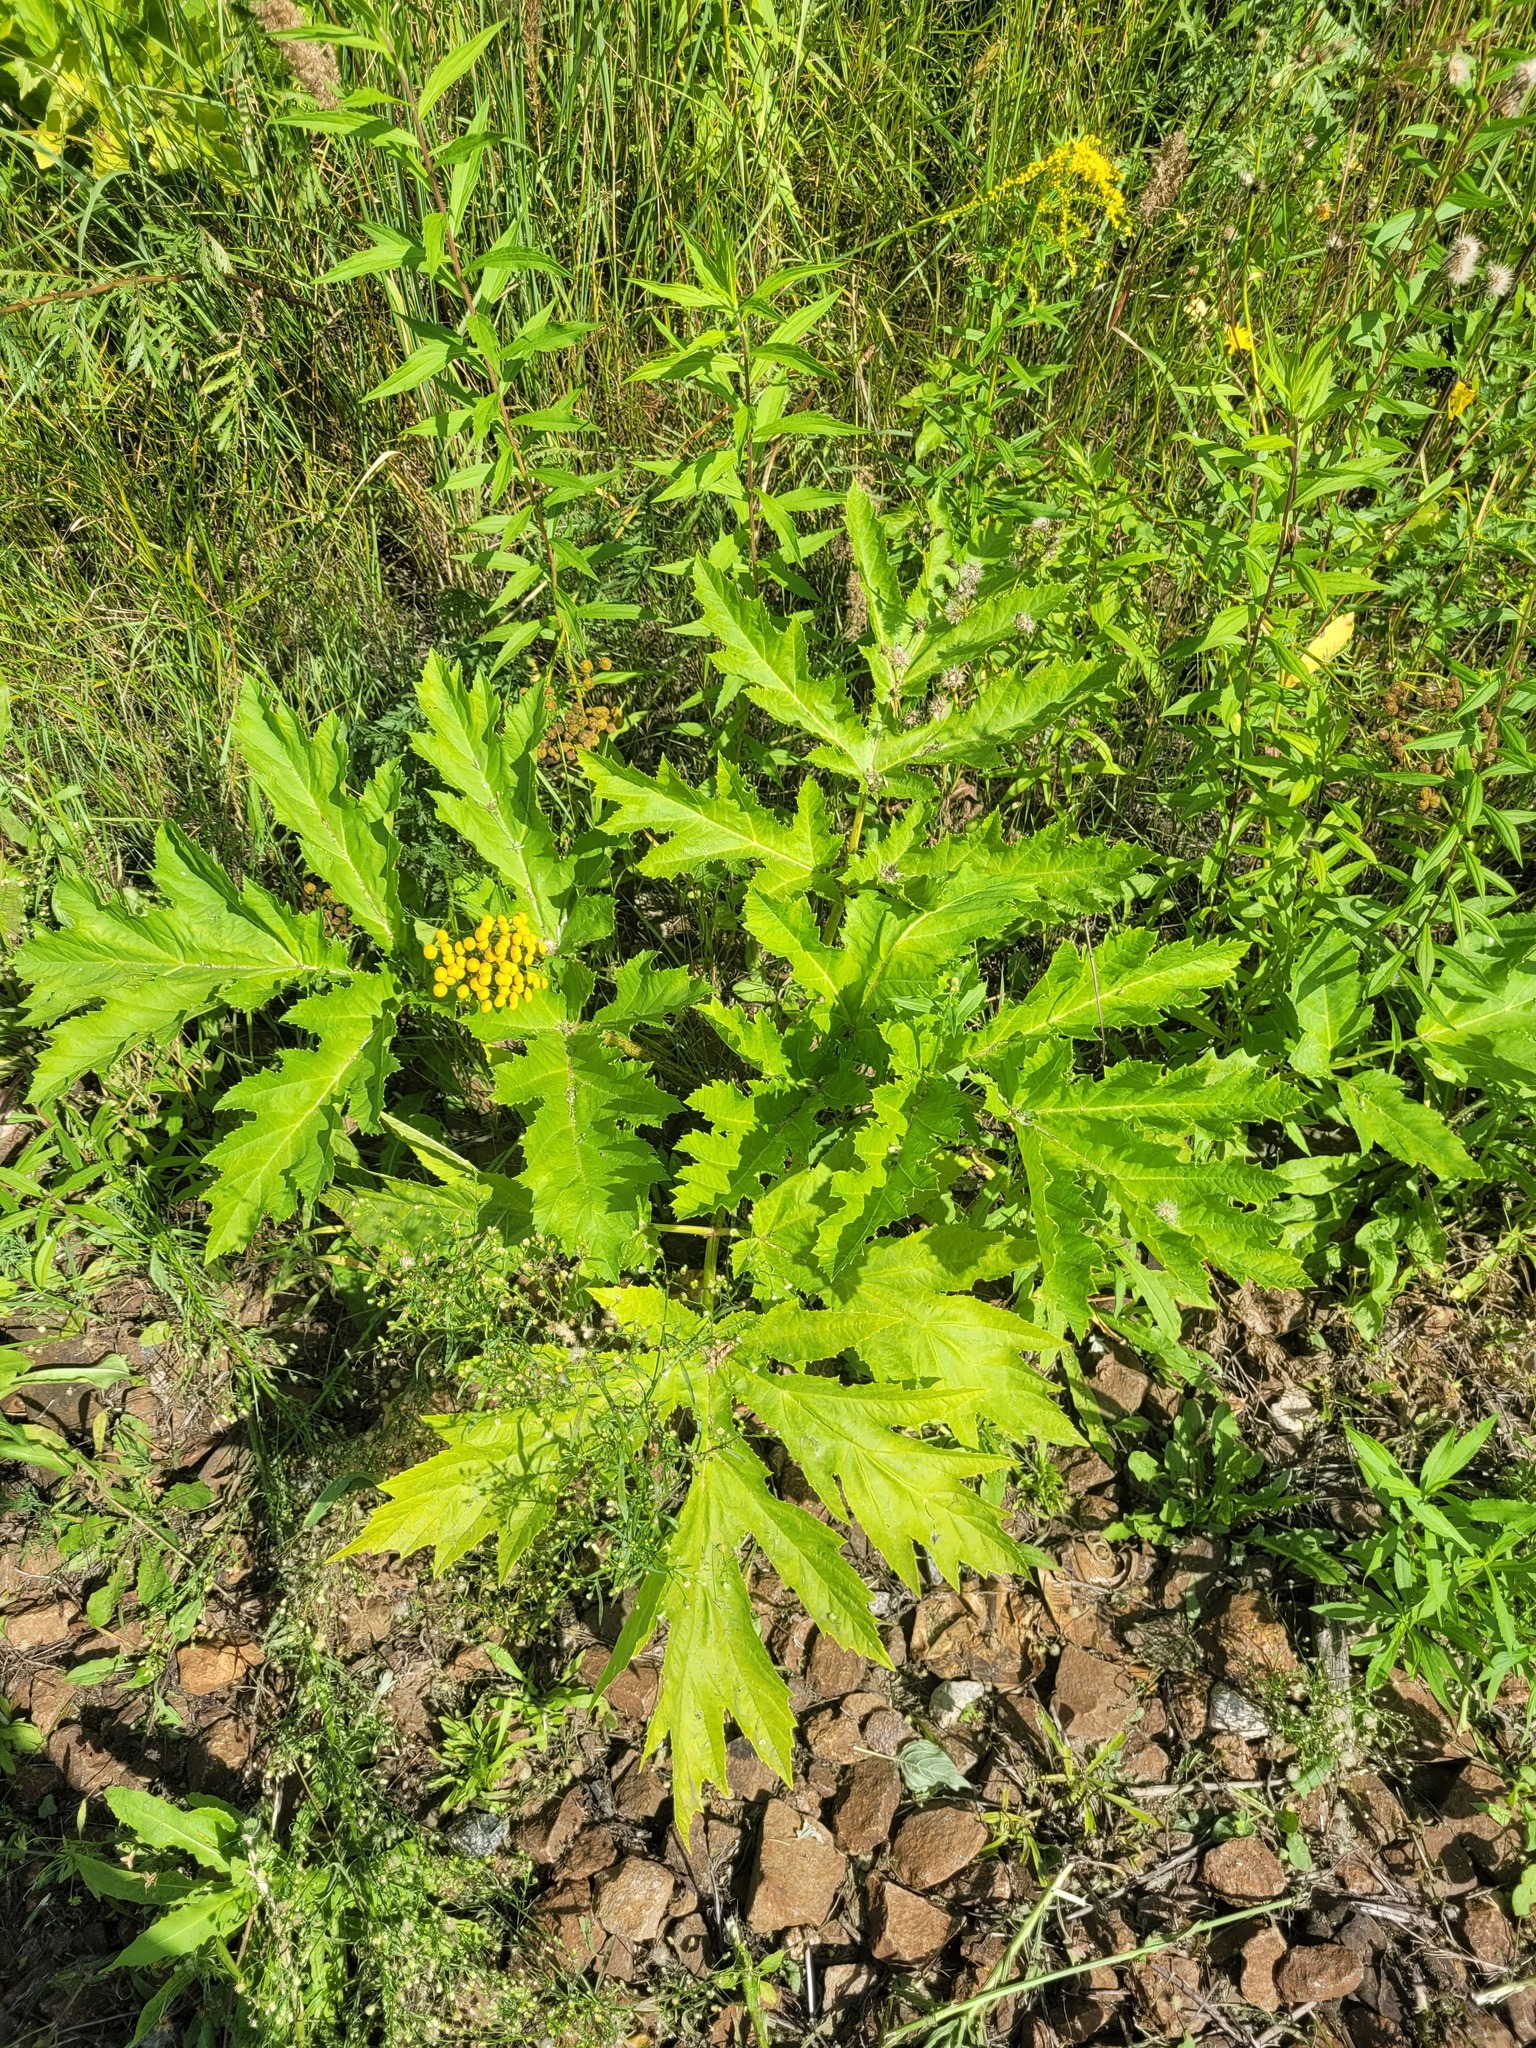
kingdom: Plantae
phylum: Tracheophyta
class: Magnoliopsida
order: Apiales
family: Apiaceae
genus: Heracleum
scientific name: Heracleum sosnowskyi
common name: Sosnowsky's hogweed
